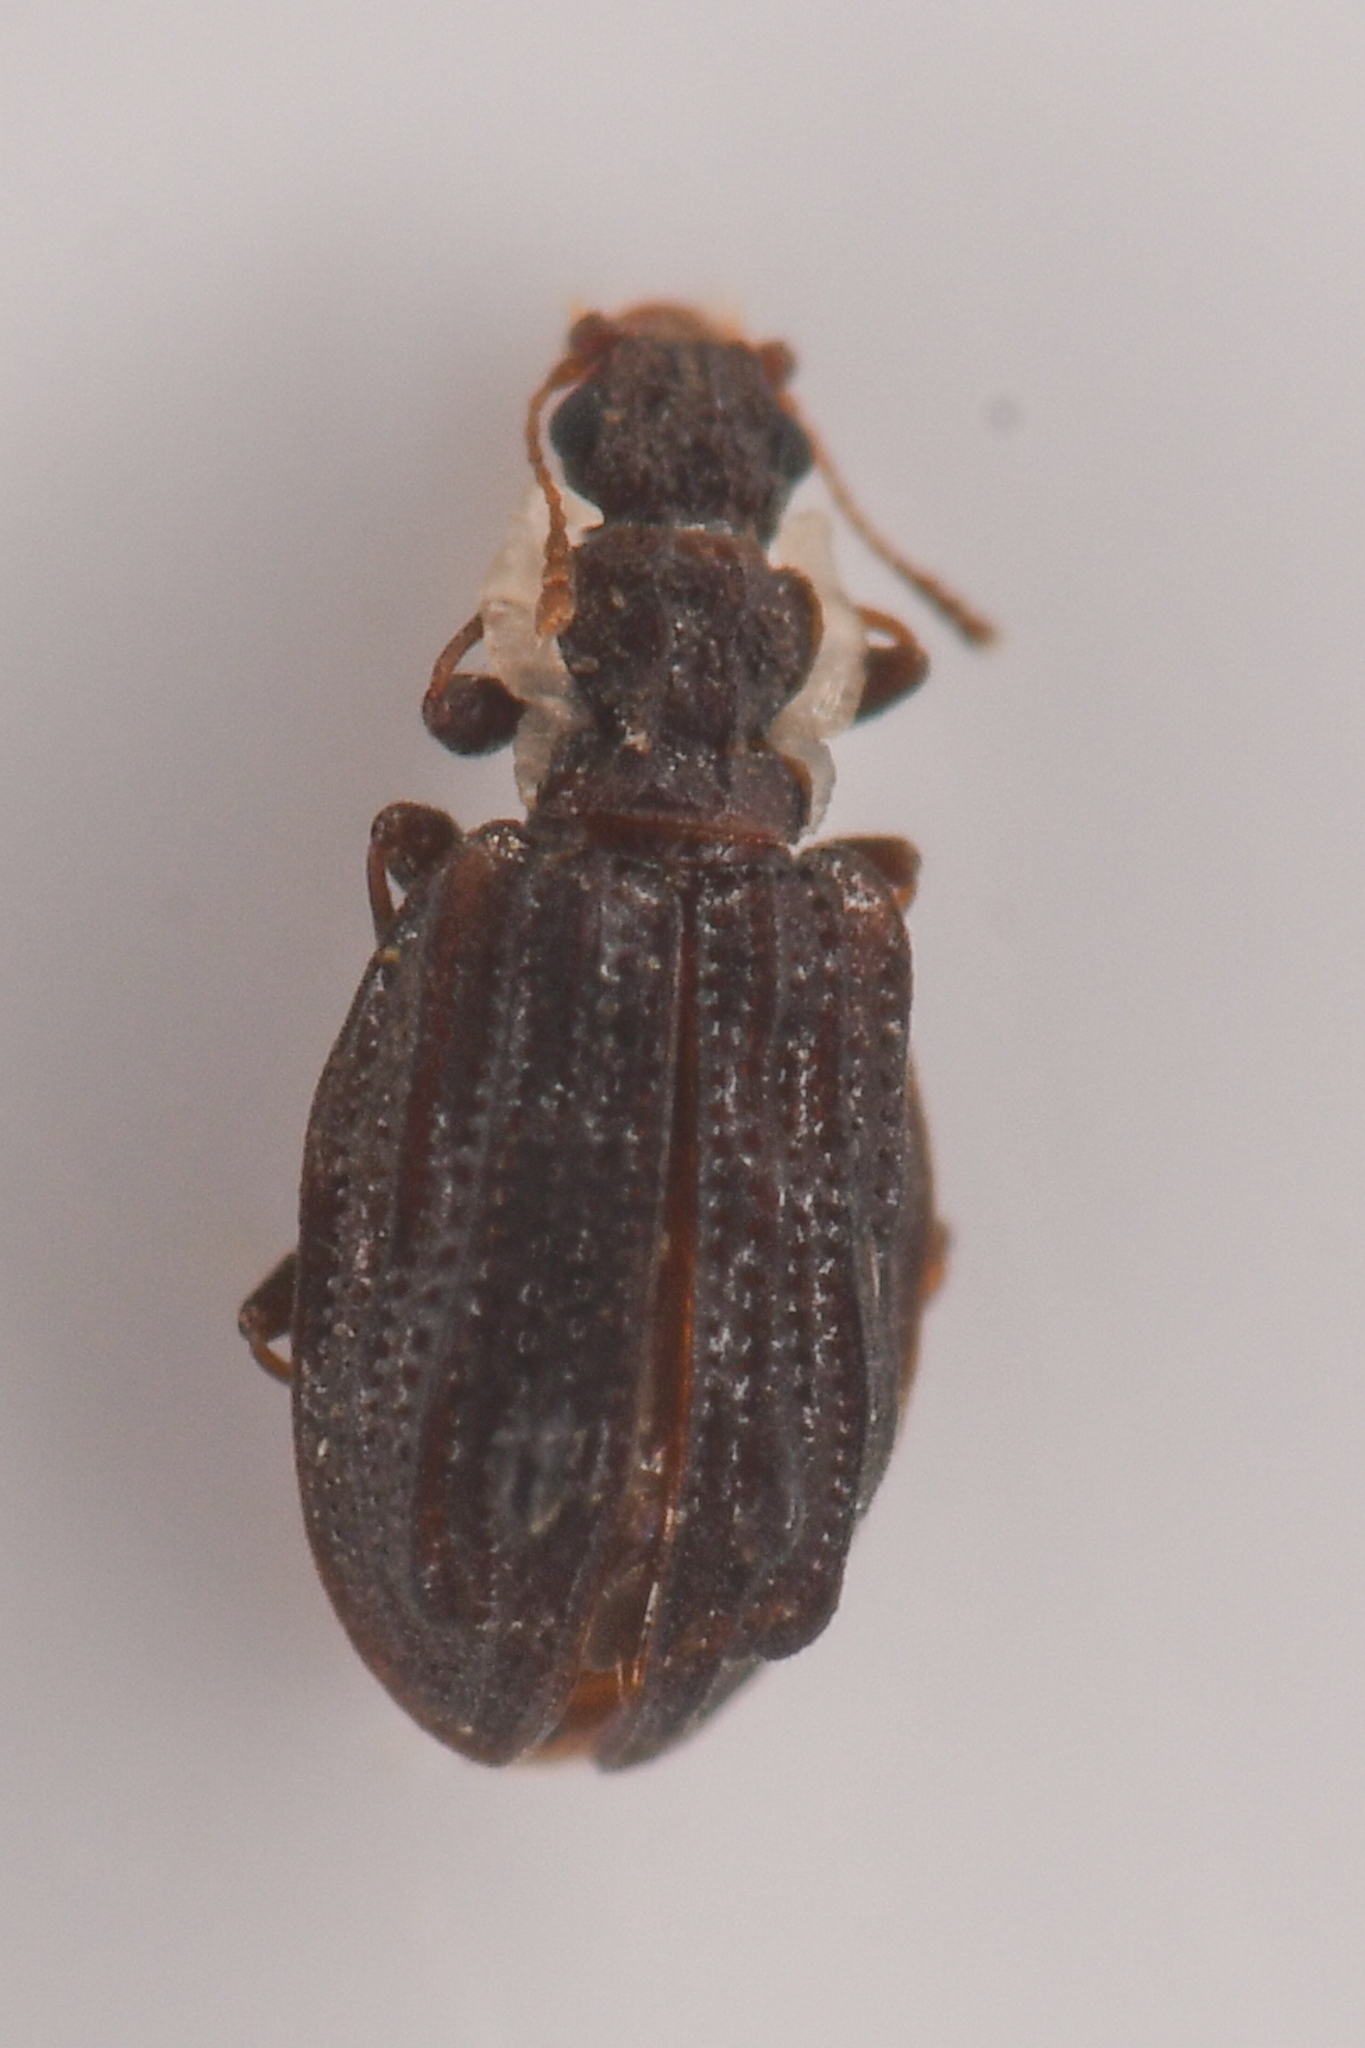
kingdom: Animalia
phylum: Arthropoda
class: Insecta
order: Coleoptera
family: Latridiidae
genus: Cartodere
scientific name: Cartodere nodifer
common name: Humpbacked minute scavenger beetle
